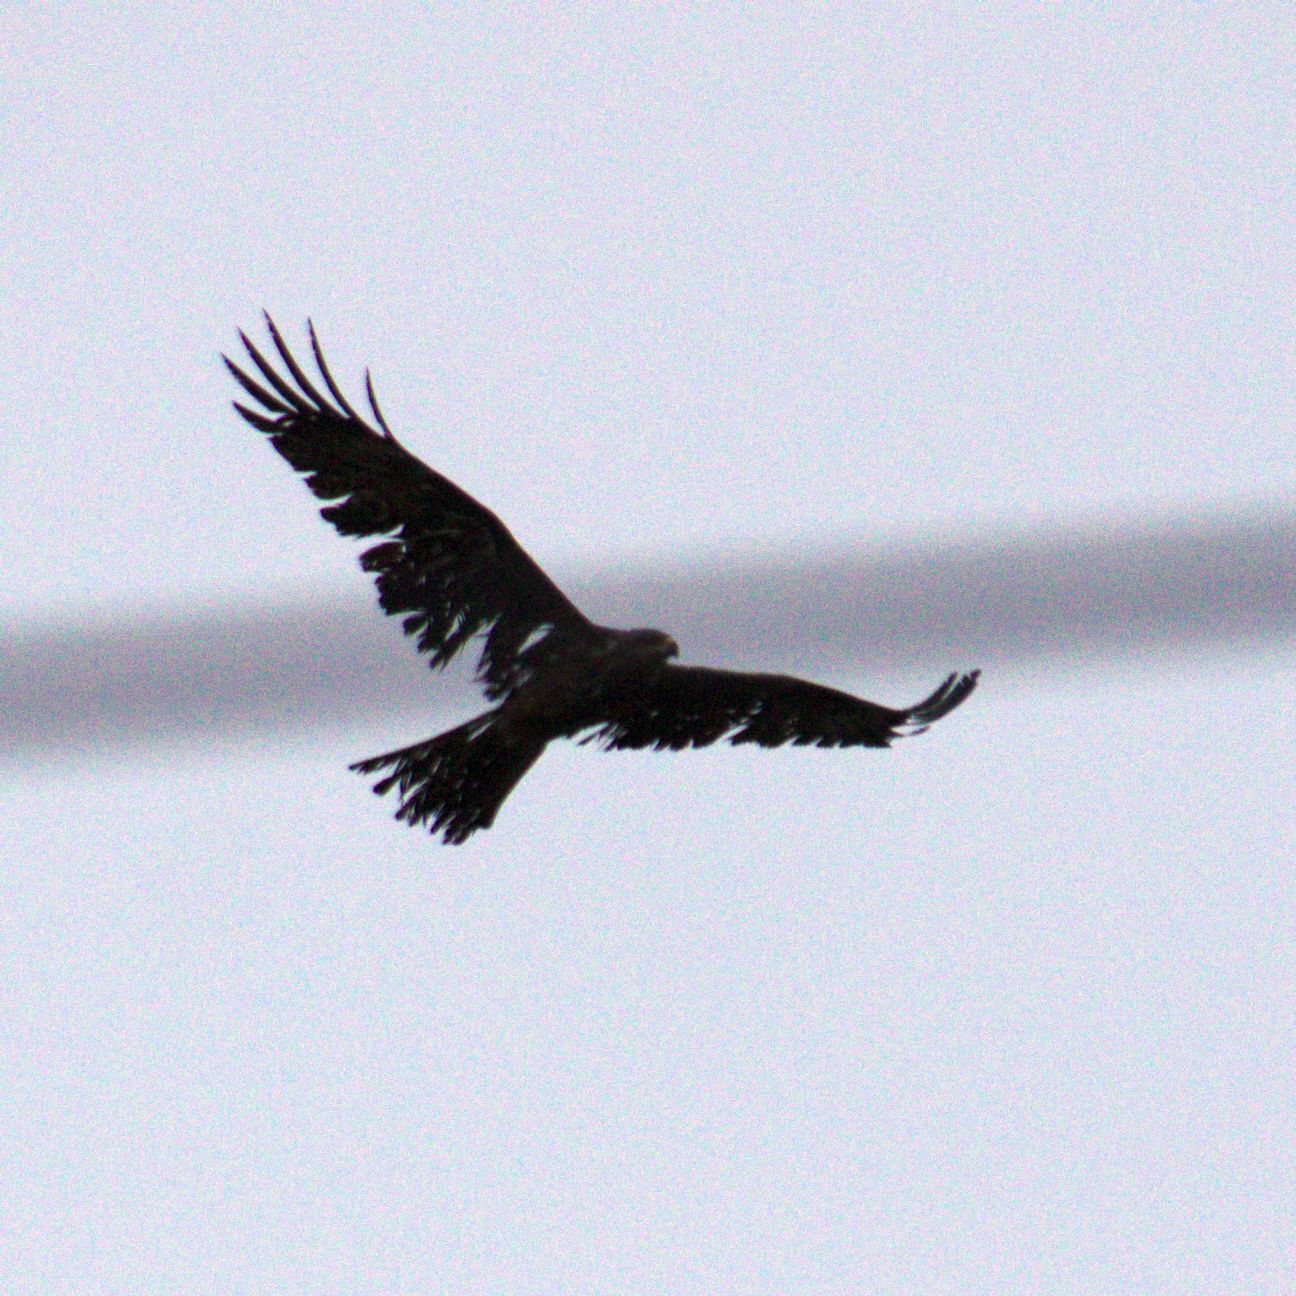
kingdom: Animalia
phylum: Chordata
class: Aves
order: Accipitriformes
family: Accipitridae
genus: Milvus
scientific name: Milvus migrans
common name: Black kite
